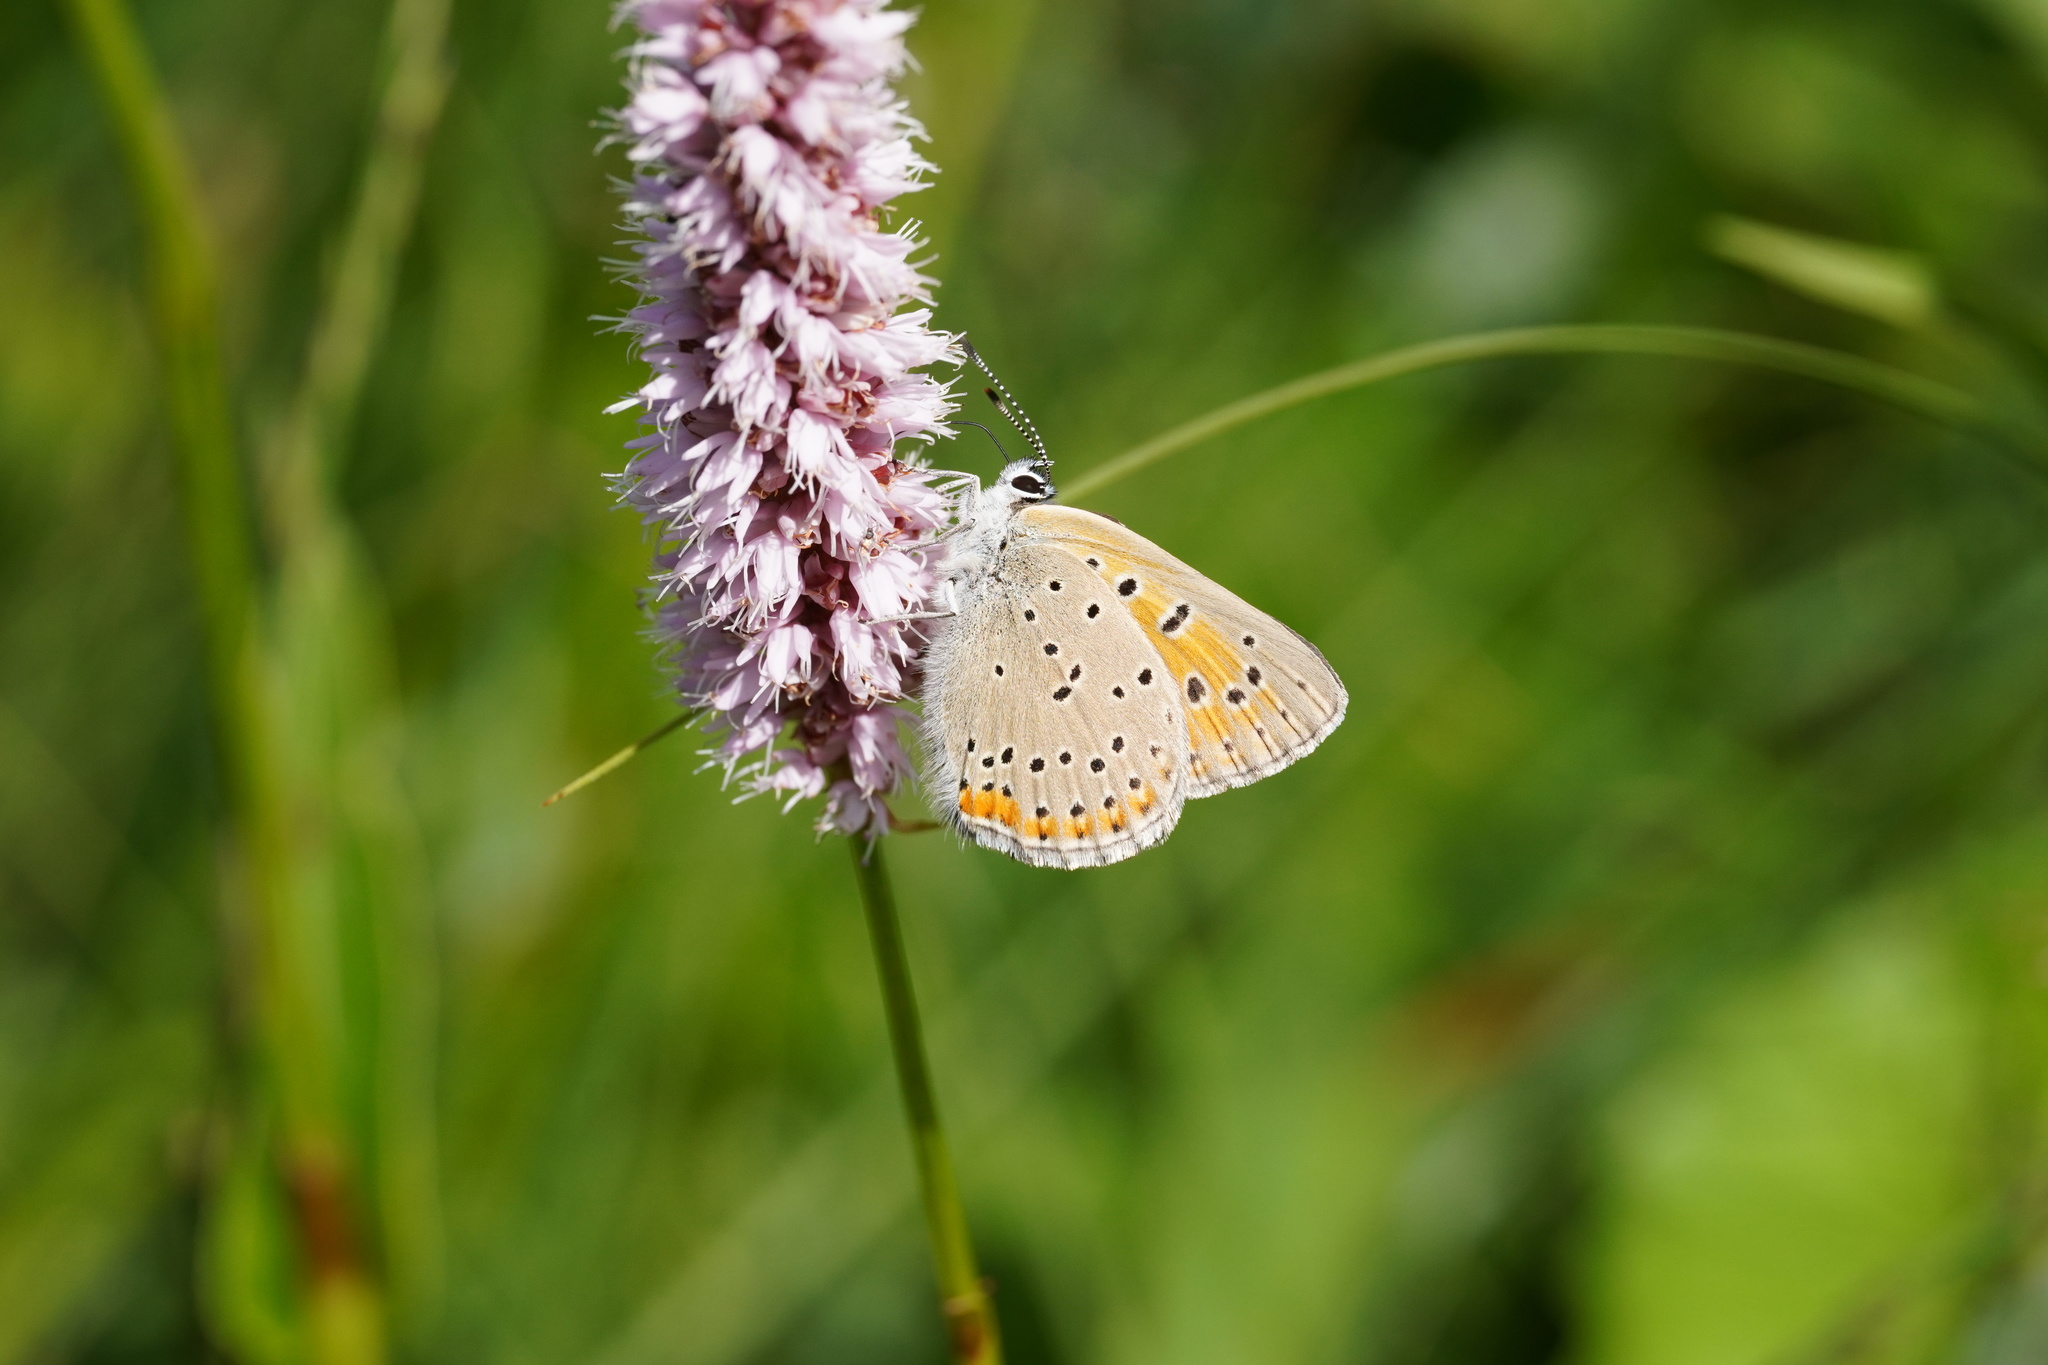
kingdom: Animalia
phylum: Arthropoda
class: Insecta
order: Lepidoptera
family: Lycaenidae
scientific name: Lycaenidae
